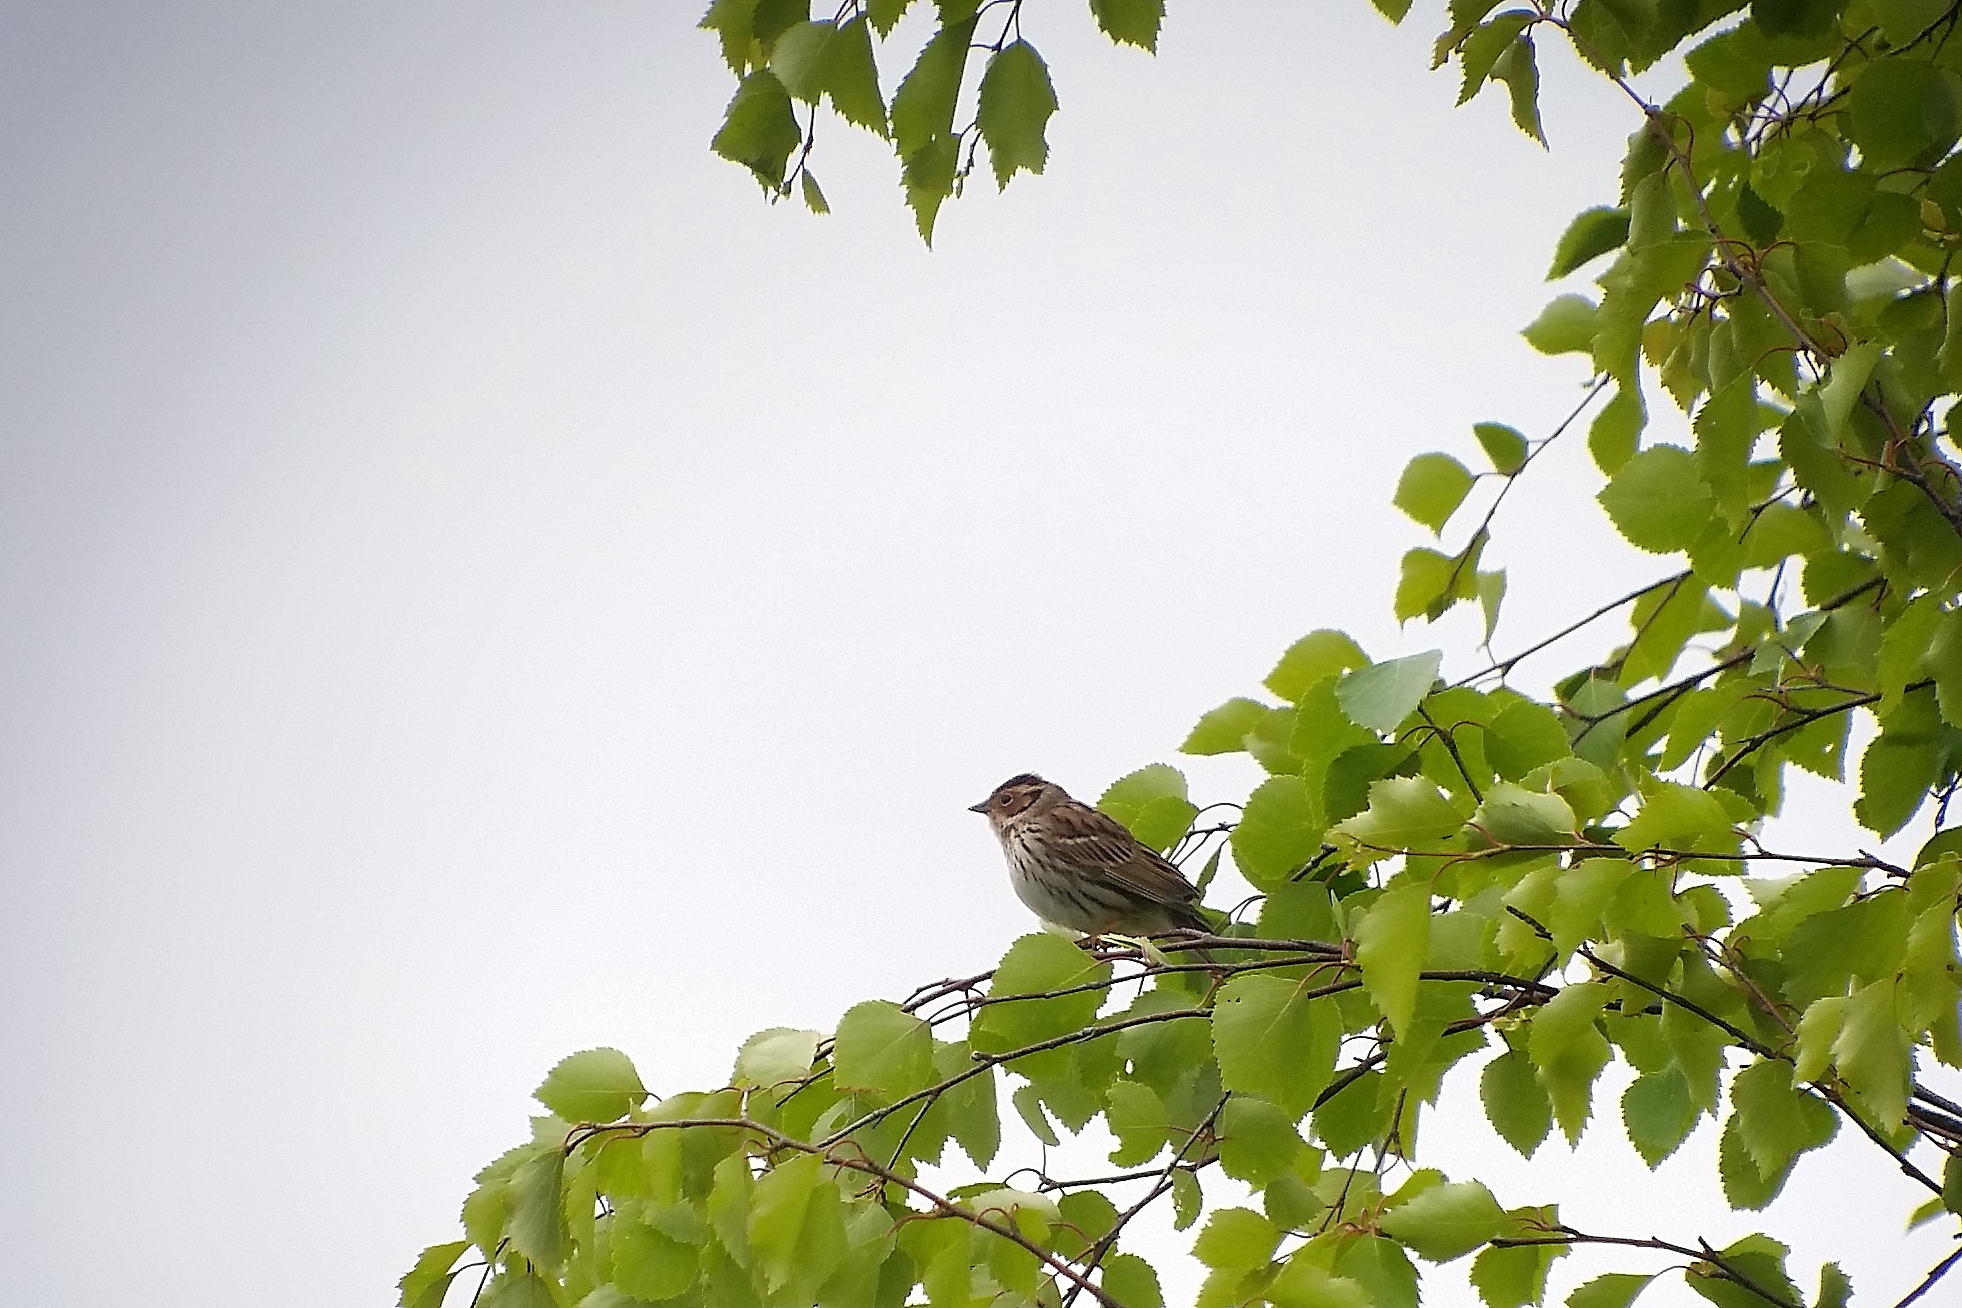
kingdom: Animalia
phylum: Chordata
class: Aves
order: Passeriformes
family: Emberizidae
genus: Emberiza
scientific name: Emberiza pusilla
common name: Little bunting
